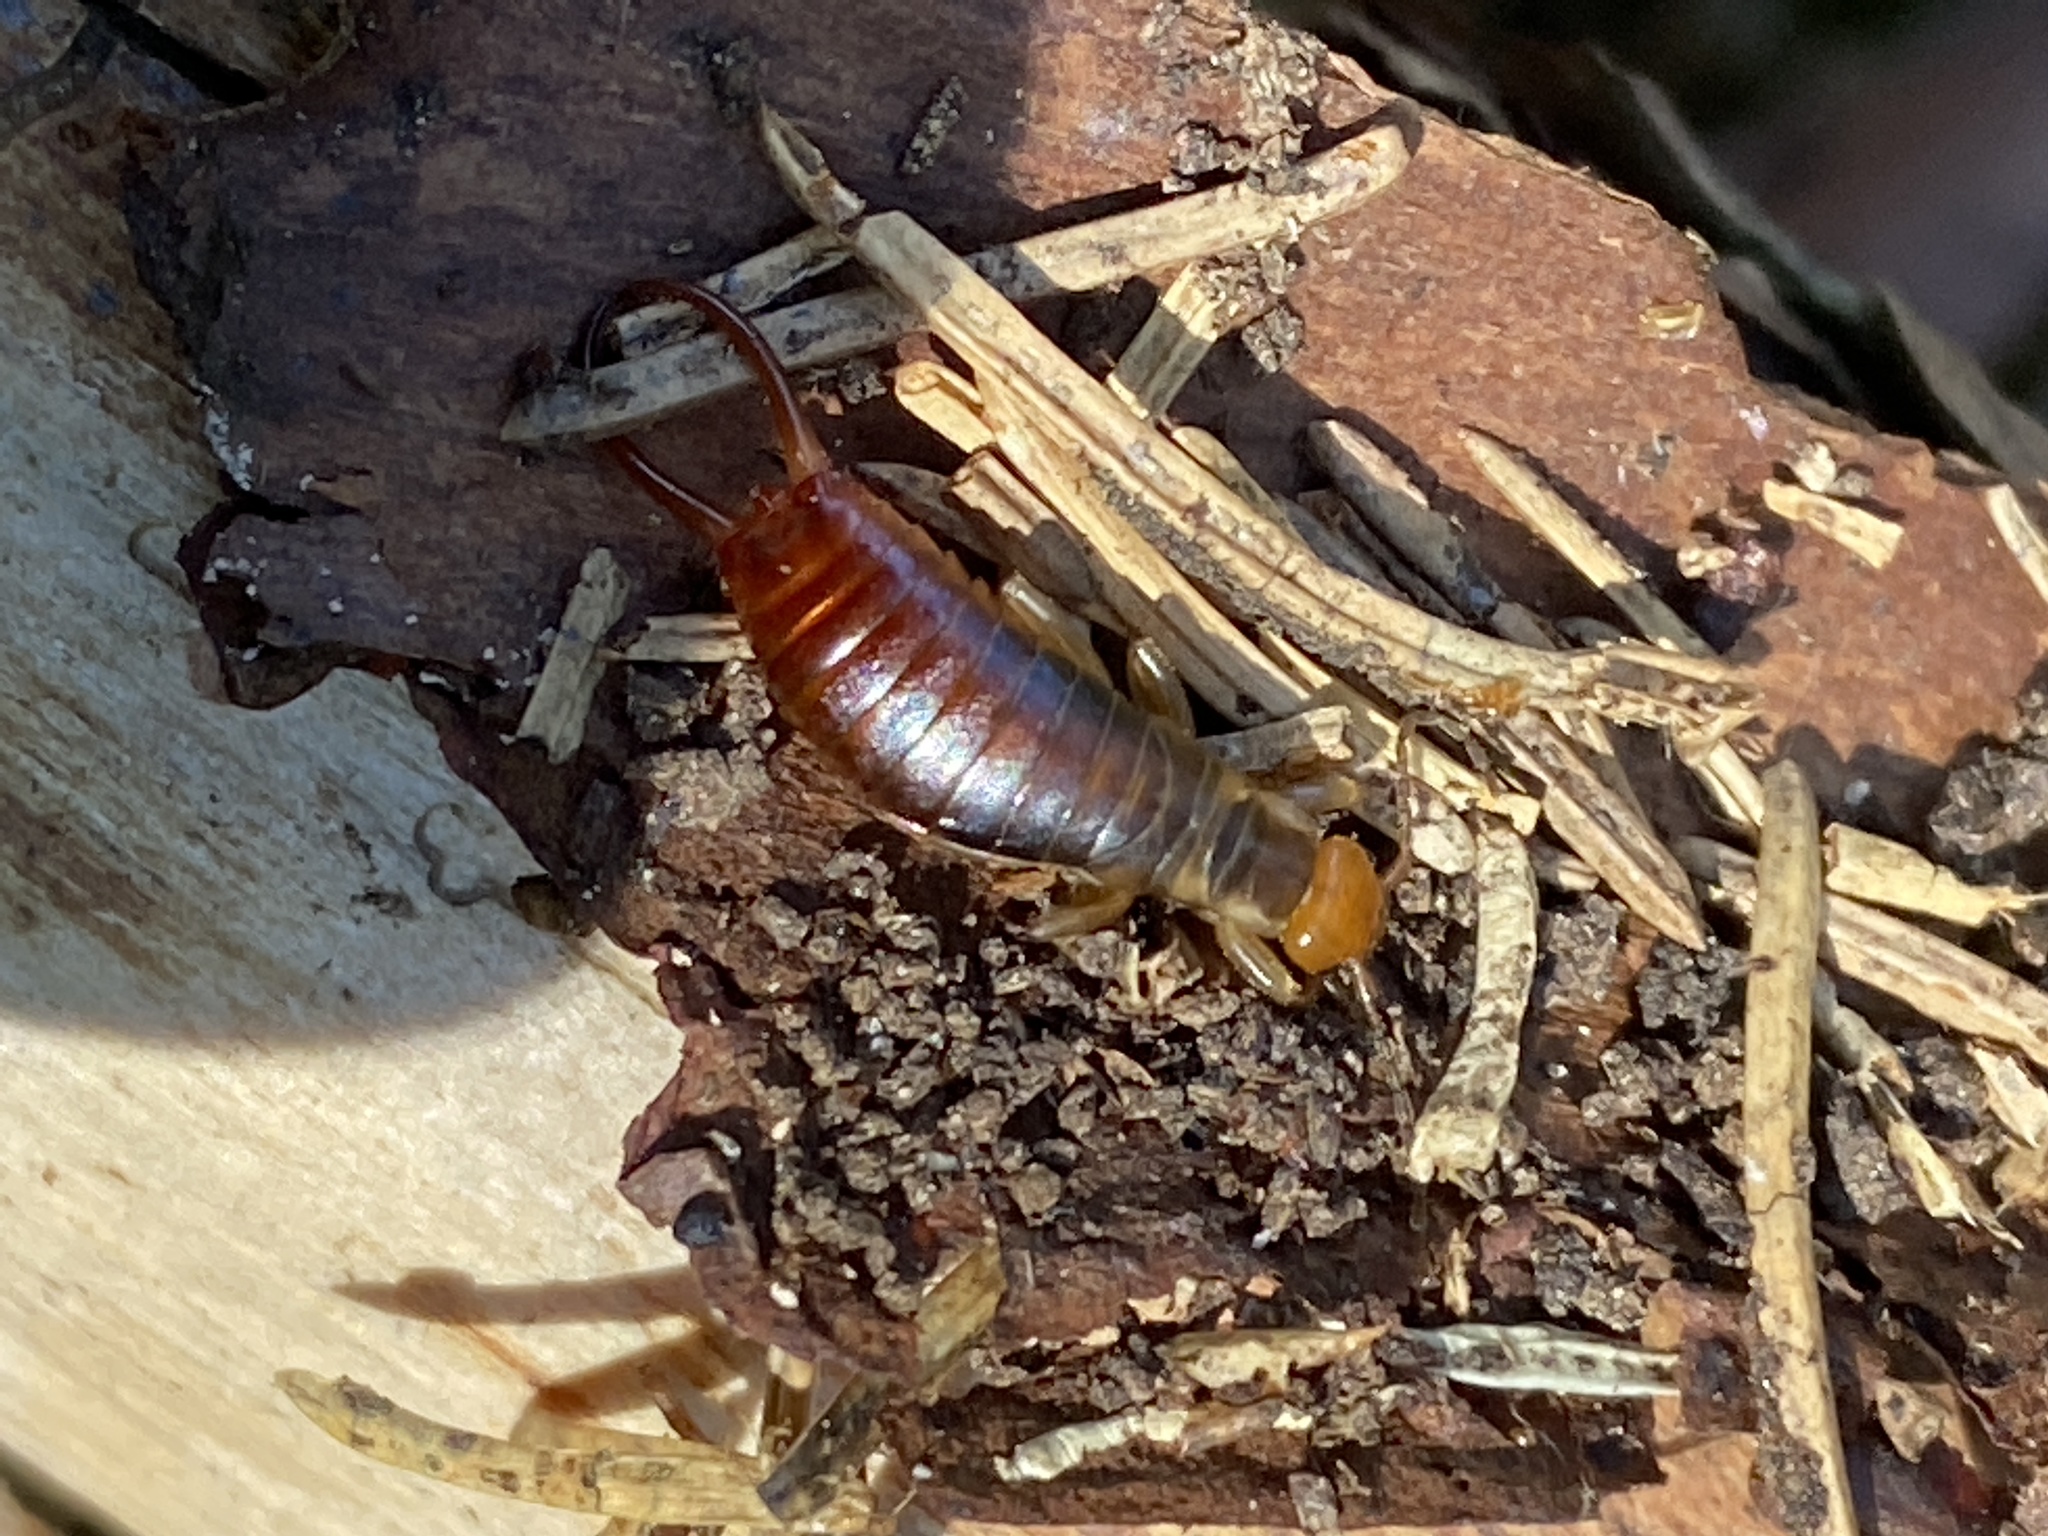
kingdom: Animalia
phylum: Arthropoda
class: Insecta
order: Dermaptera
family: Forficulidae
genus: Chelidurella
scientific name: Chelidurella acanthopygia
